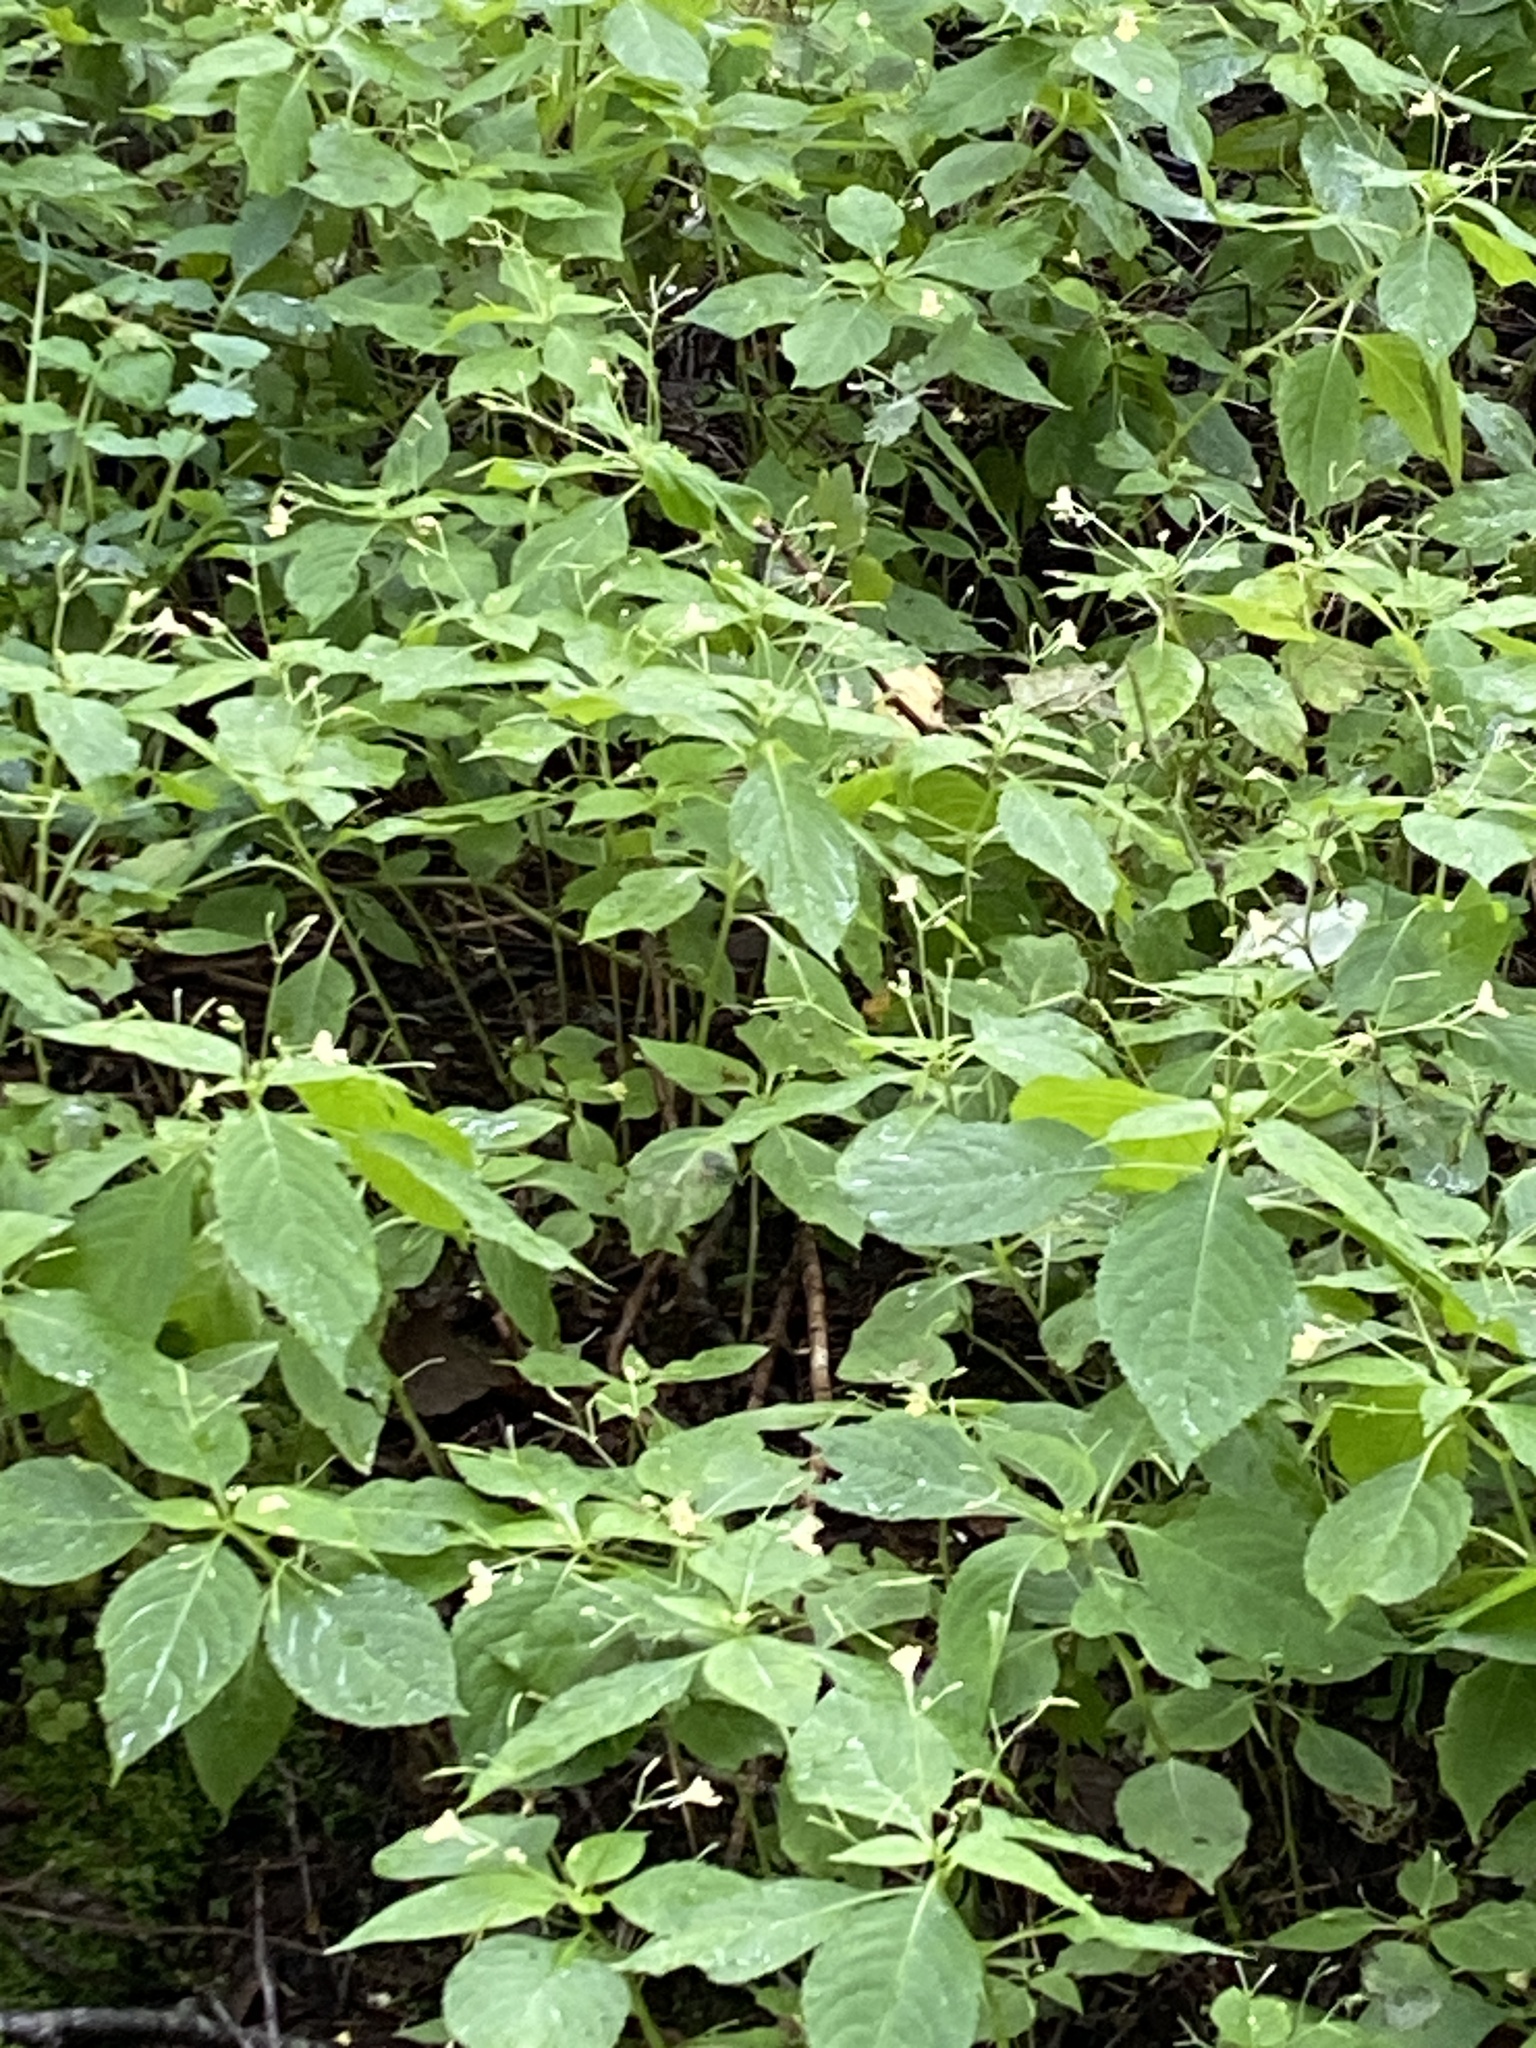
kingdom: Plantae
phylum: Tracheophyta
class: Magnoliopsida
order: Ericales
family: Balsaminaceae
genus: Impatiens
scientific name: Impatiens parviflora
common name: Small balsam
